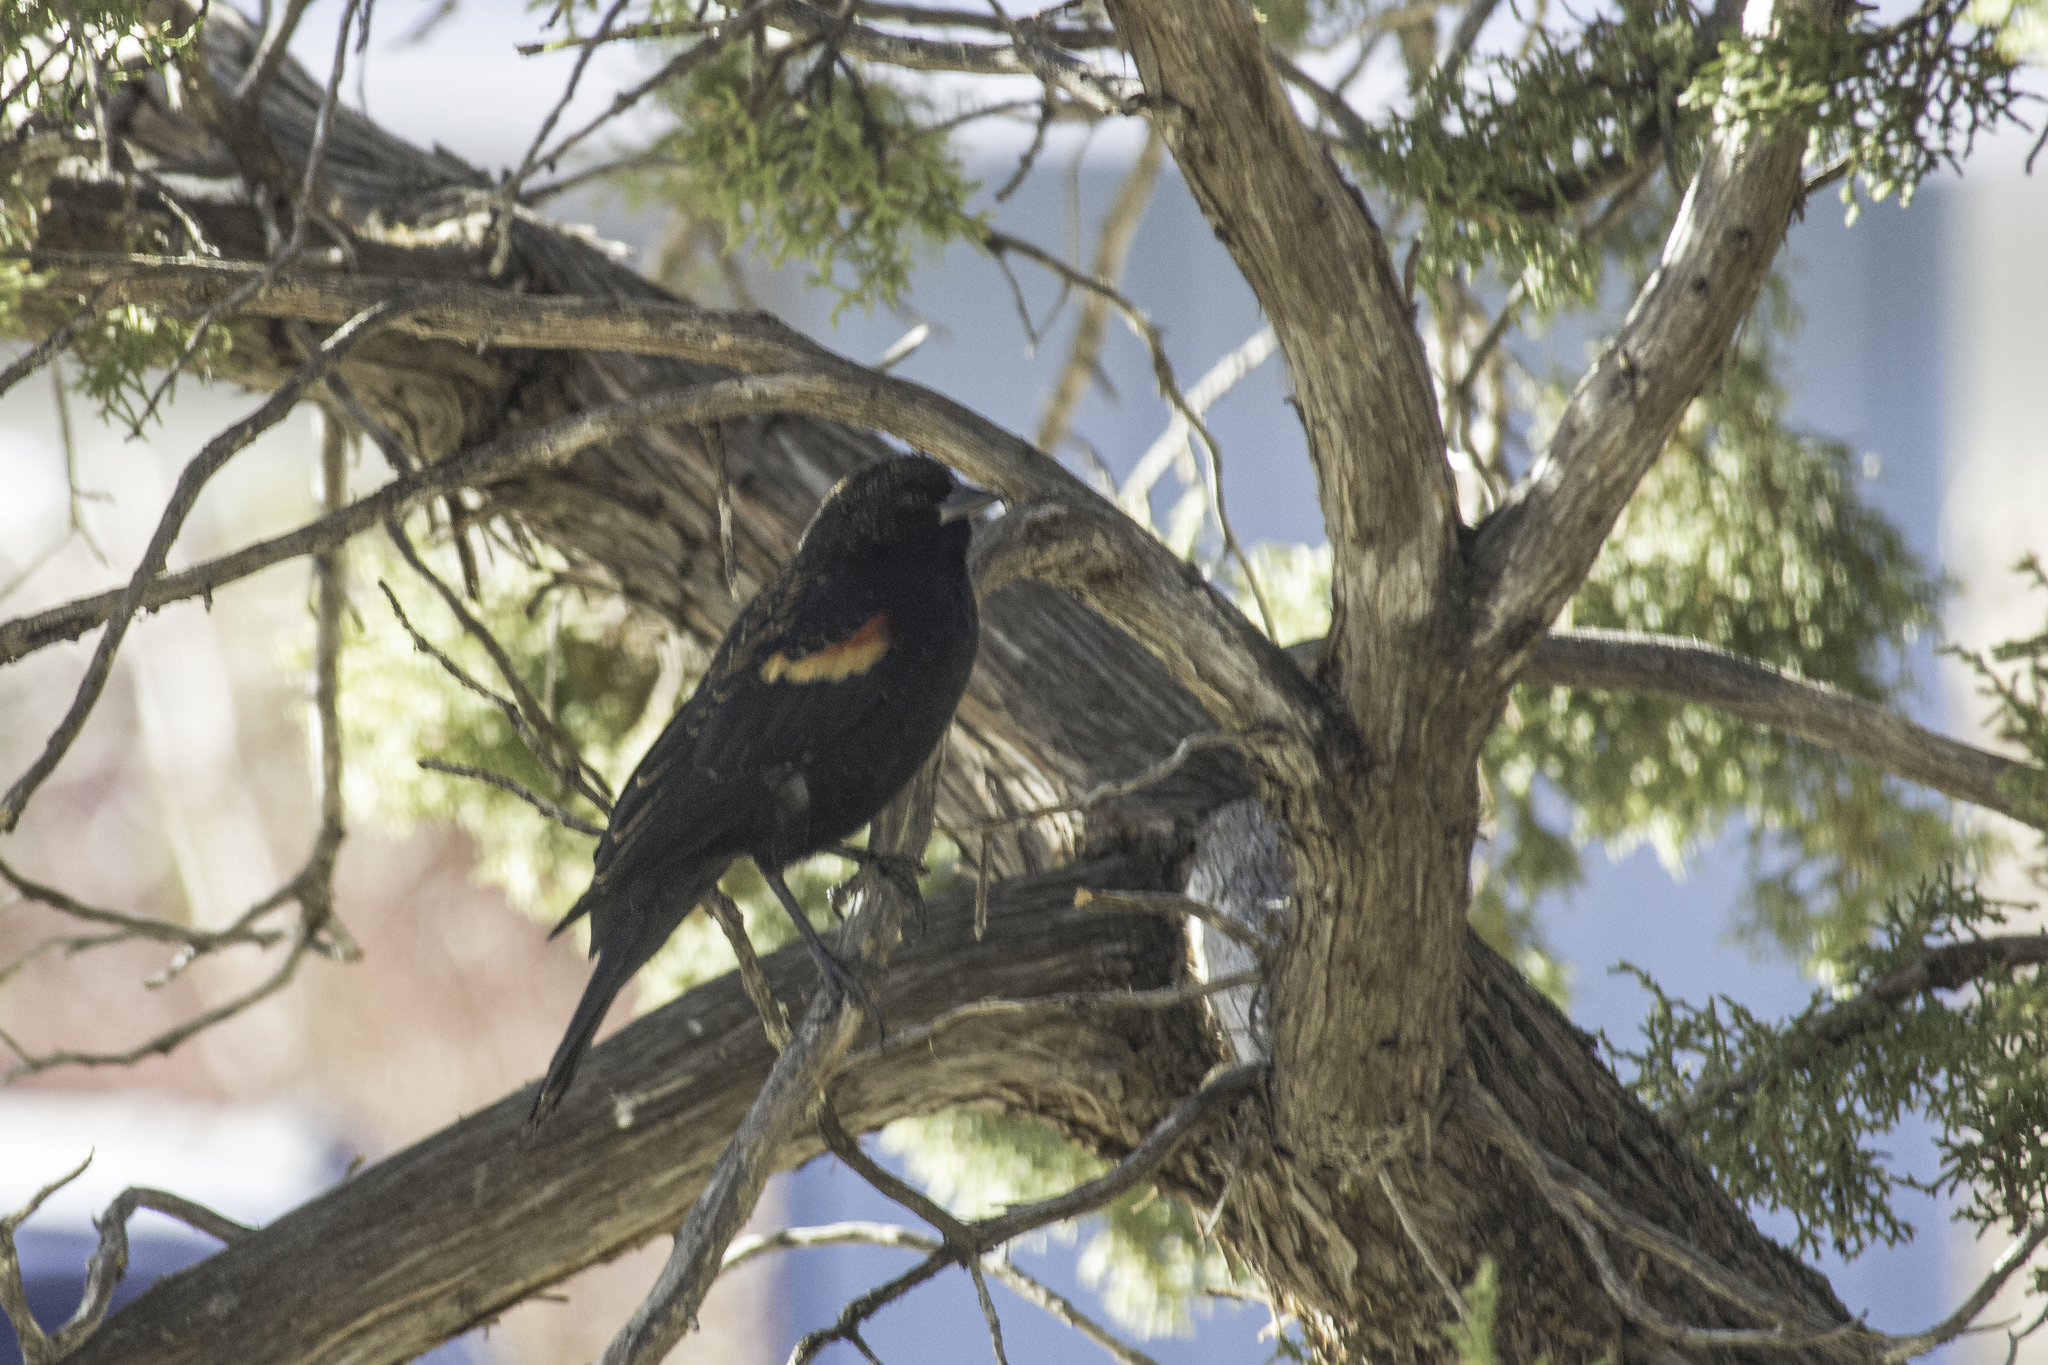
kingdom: Animalia
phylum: Chordata
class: Aves
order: Passeriformes
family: Icteridae
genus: Agelaius
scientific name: Agelaius phoeniceus
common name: Red-winged blackbird
